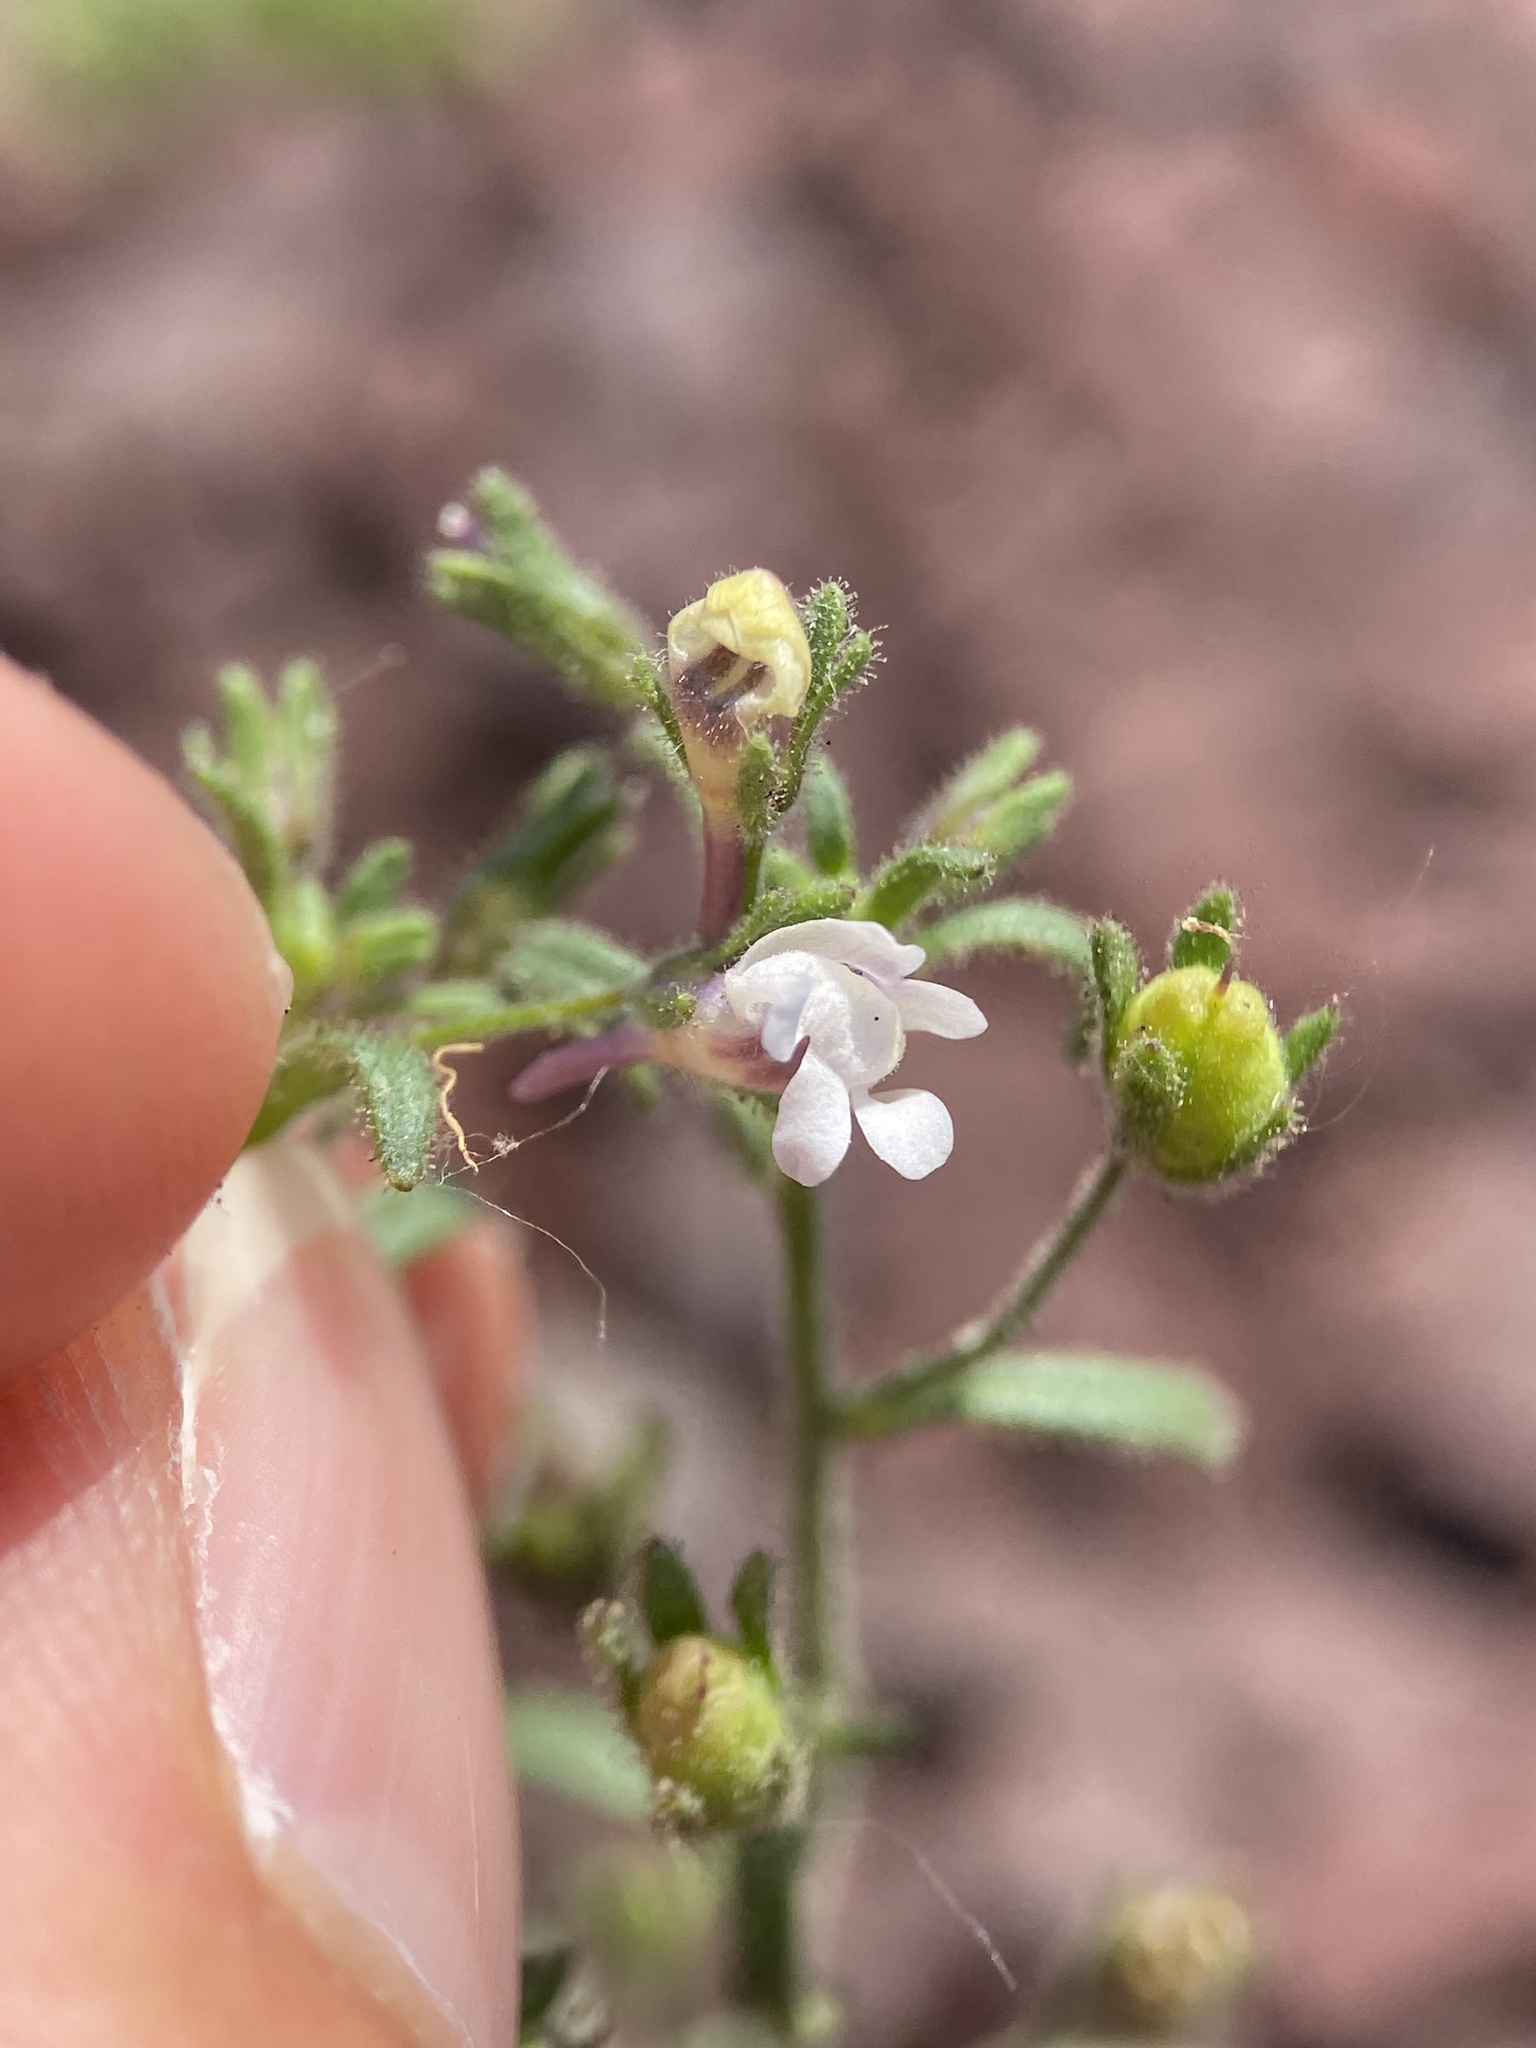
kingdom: Plantae
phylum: Tracheophyta
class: Magnoliopsida
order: Lamiales
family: Plantaginaceae
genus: Chaenorhinum
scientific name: Chaenorhinum minus
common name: Dwarf snapdragon
